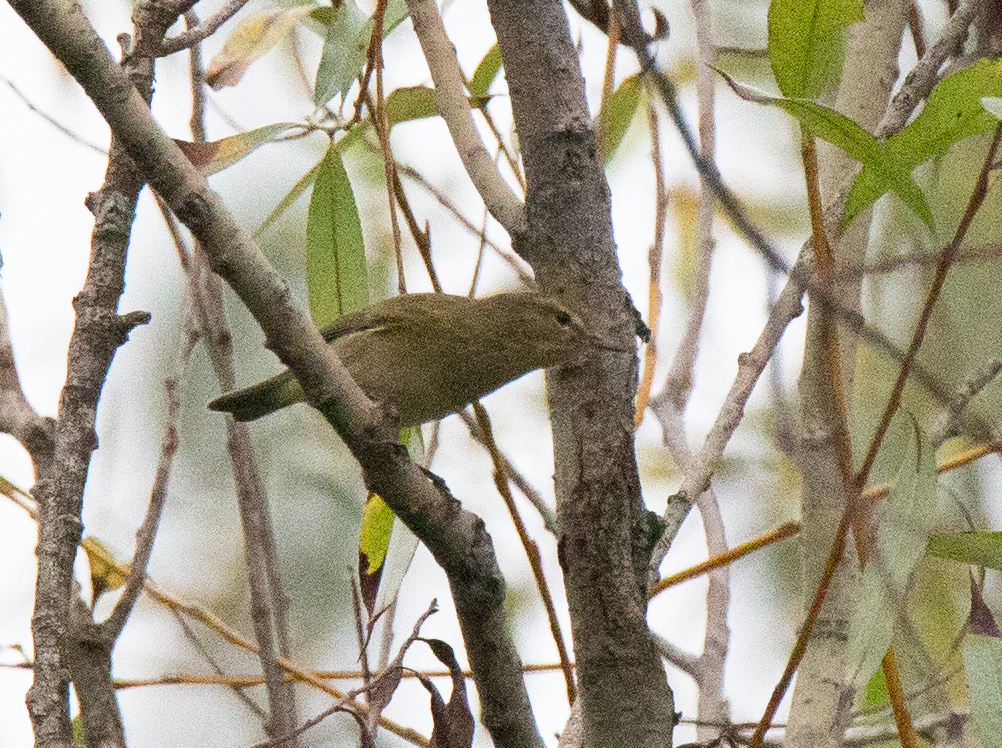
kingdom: Animalia
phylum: Chordata
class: Aves
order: Passeriformes
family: Phylloscopidae
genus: Phylloscopus
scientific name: Phylloscopus collybita
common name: Common chiffchaff
